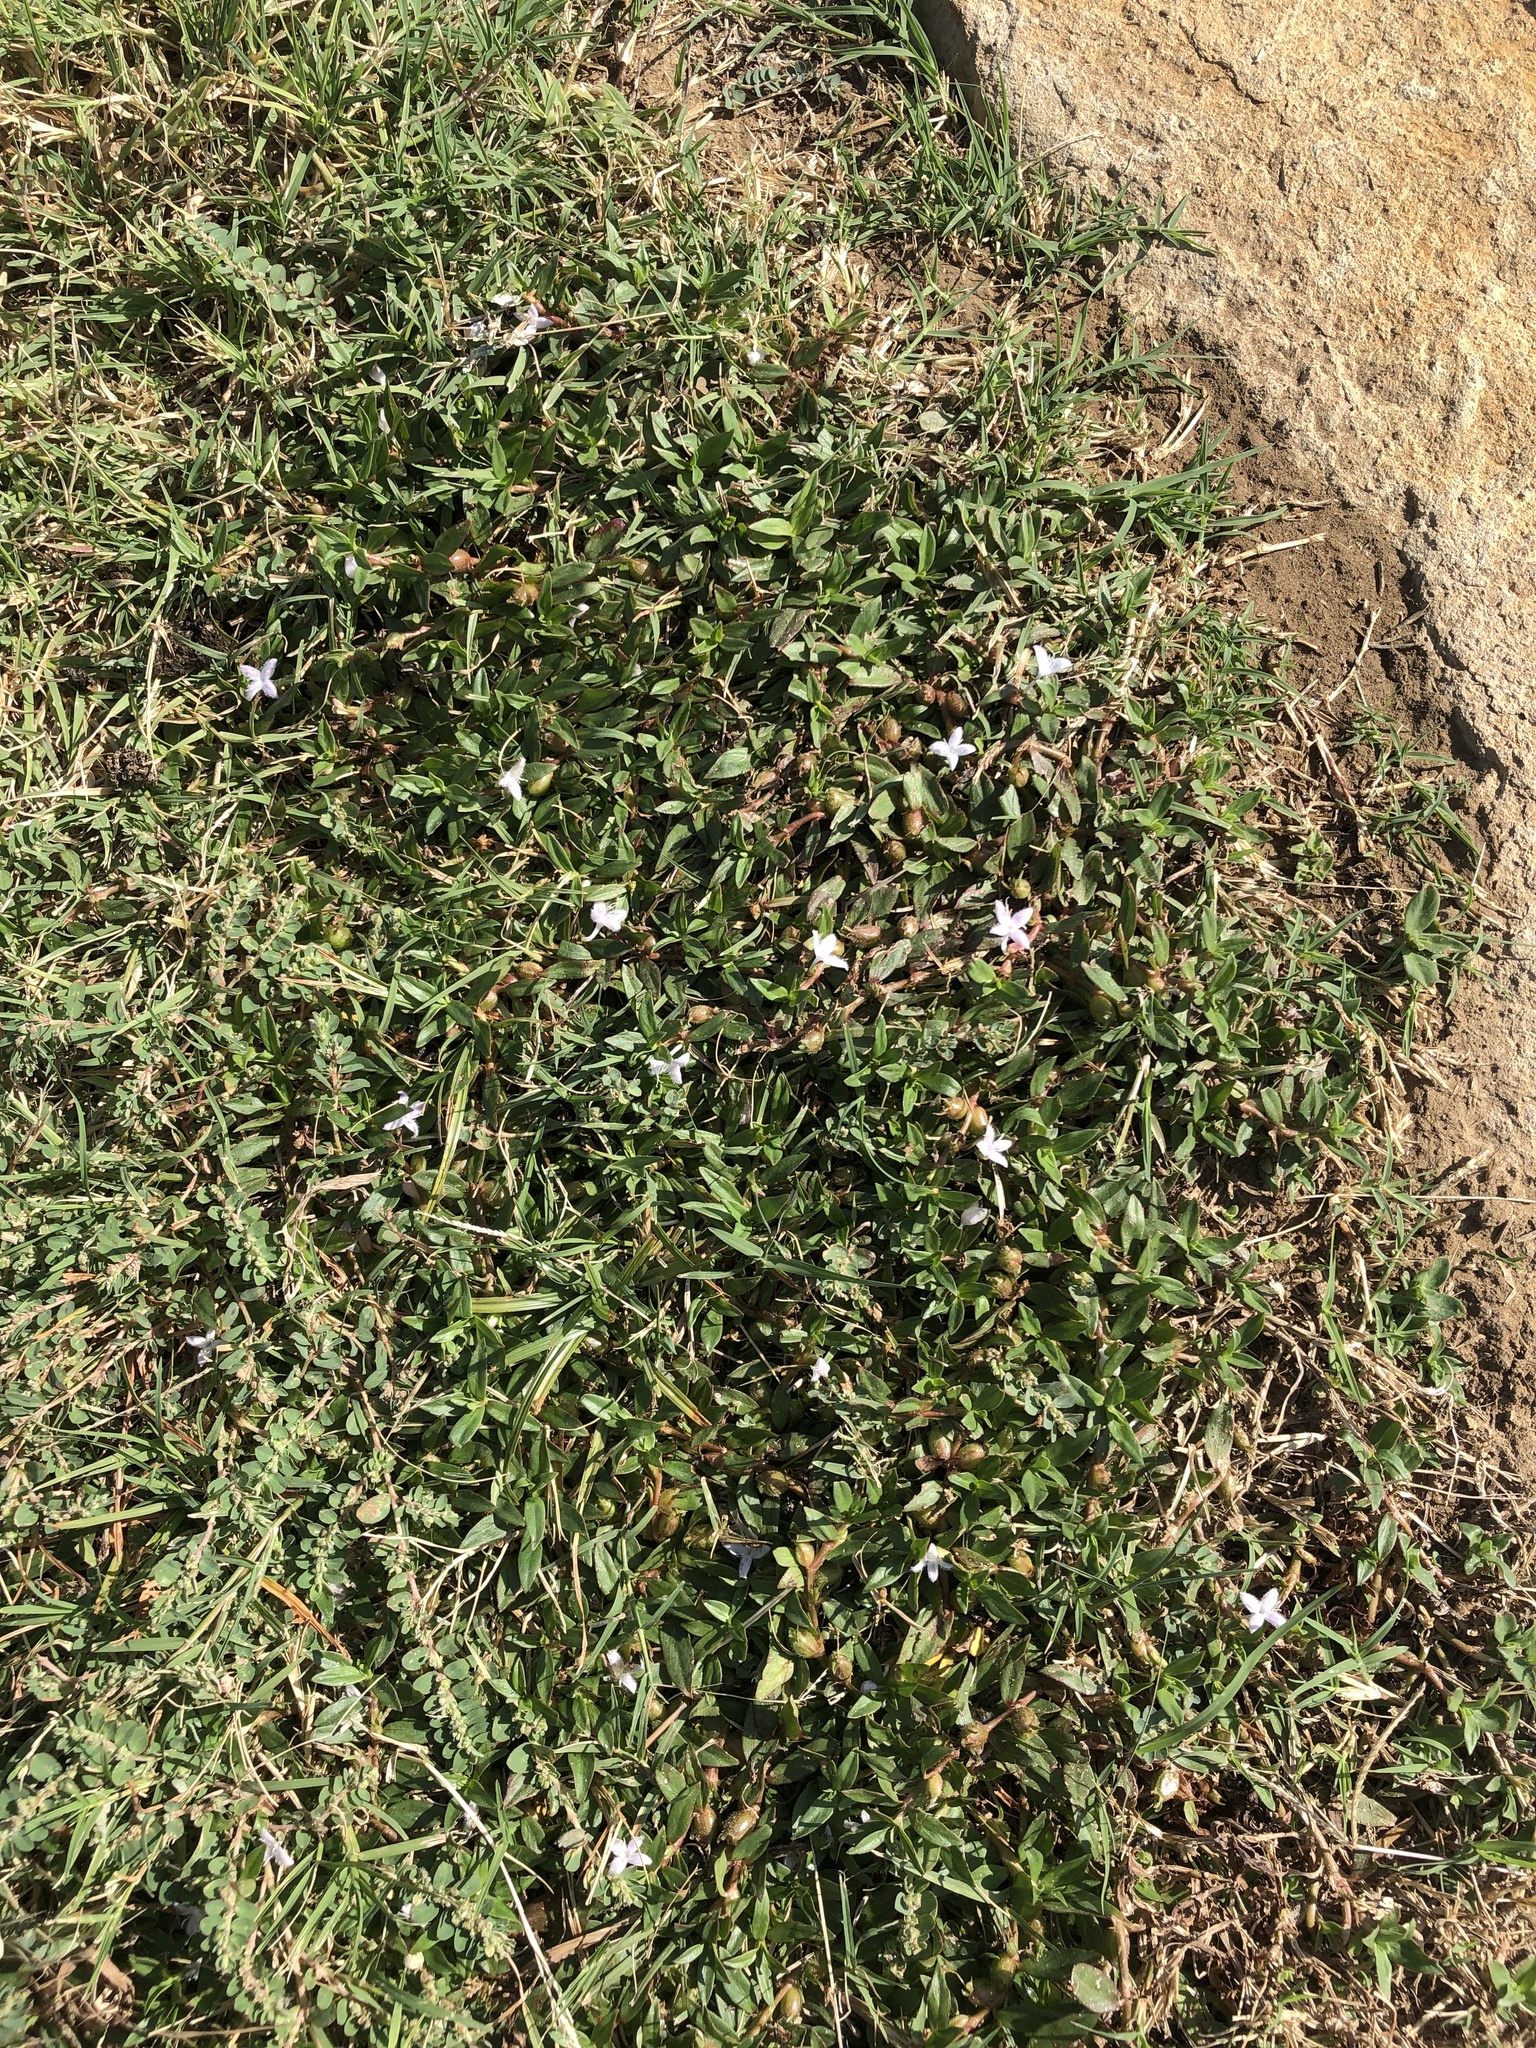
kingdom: Plantae
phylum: Tracheophyta
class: Magnoliopsida
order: Gentianales
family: Rubiaceae
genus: Diodia
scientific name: Diodia virginiana
